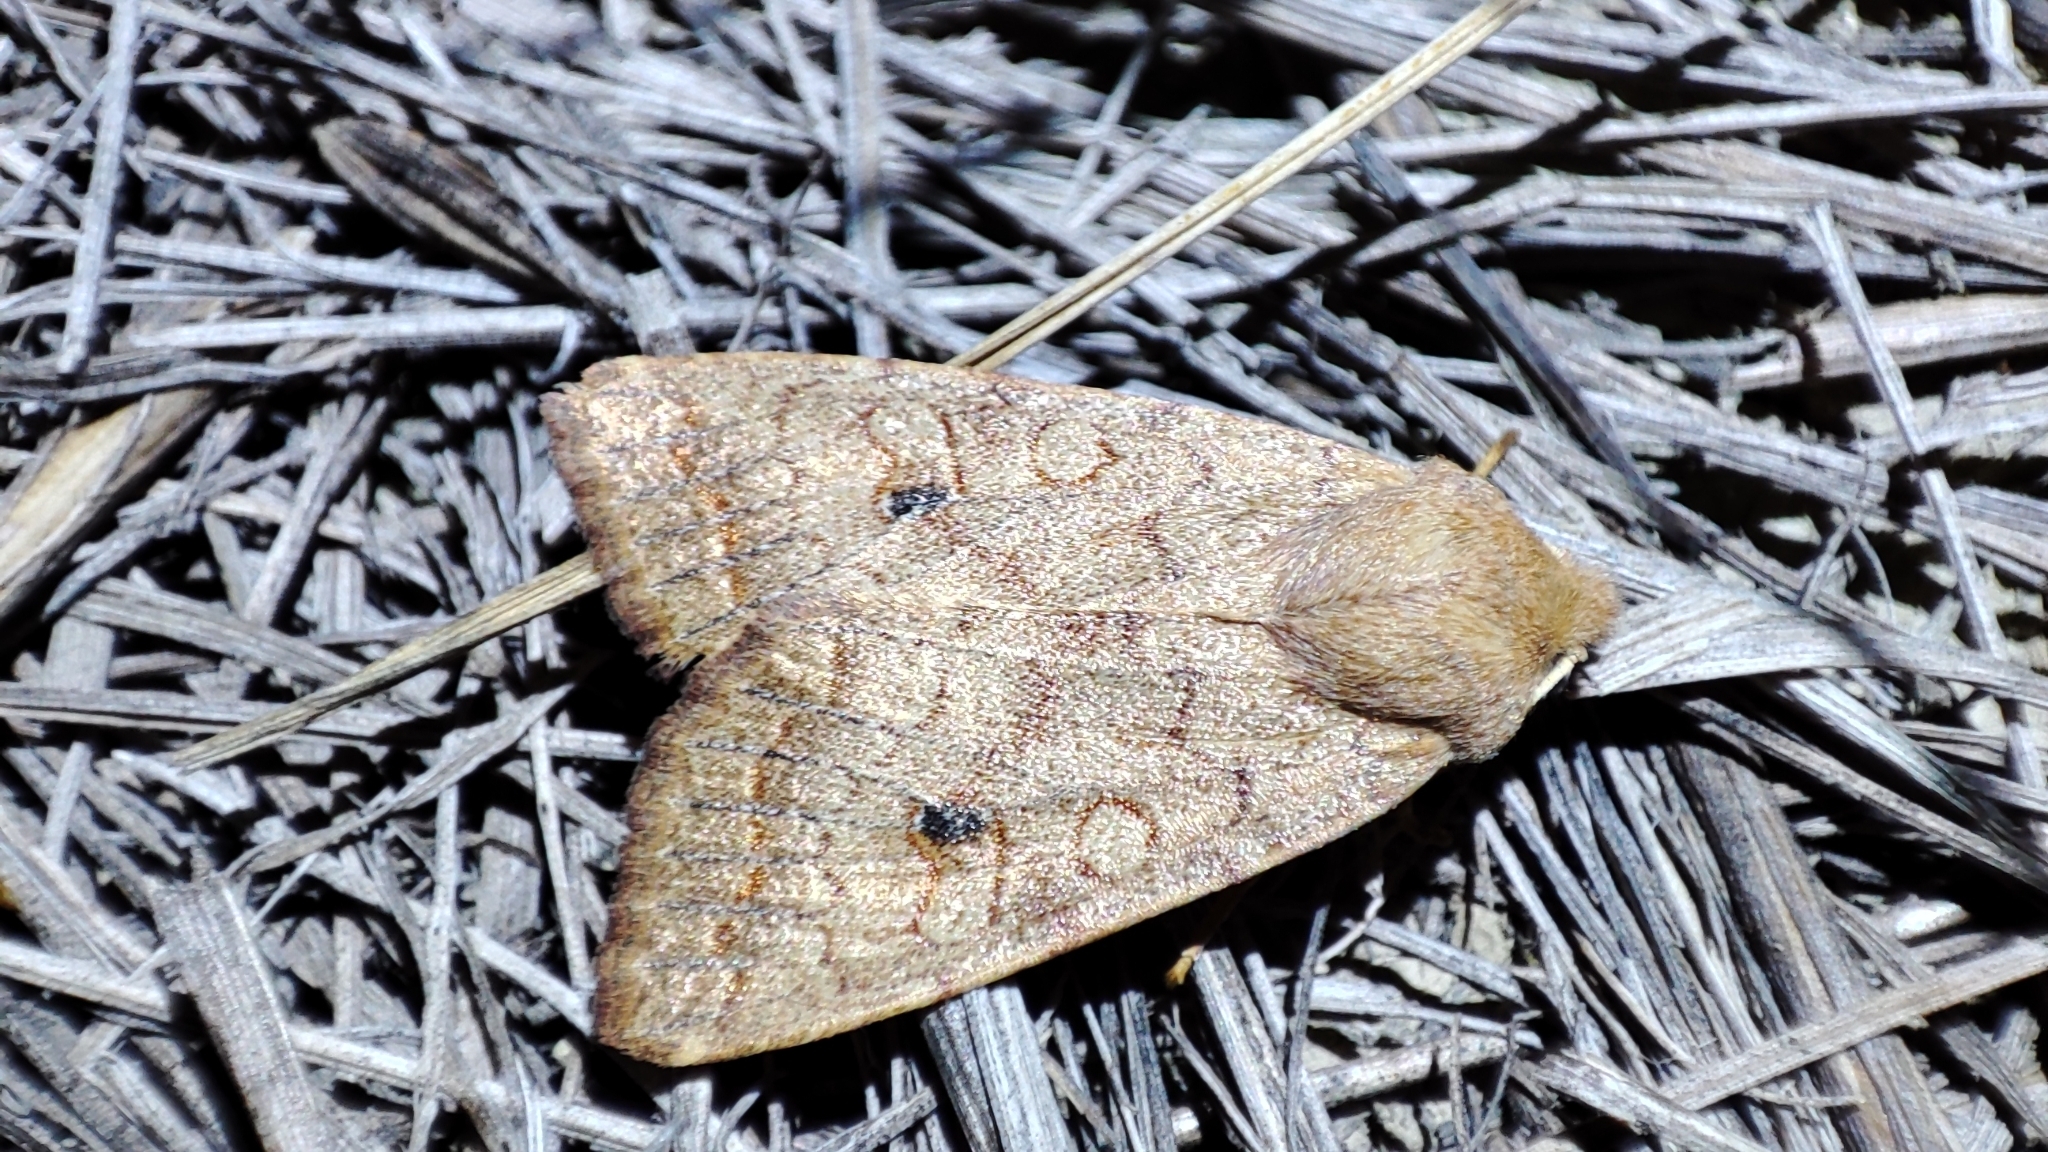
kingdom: Animalia
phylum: Arthropoda
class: Insecta
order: Lepidoptera
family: Noctuidae
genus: Sunira
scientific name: Sunira circellaris
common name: Brick
